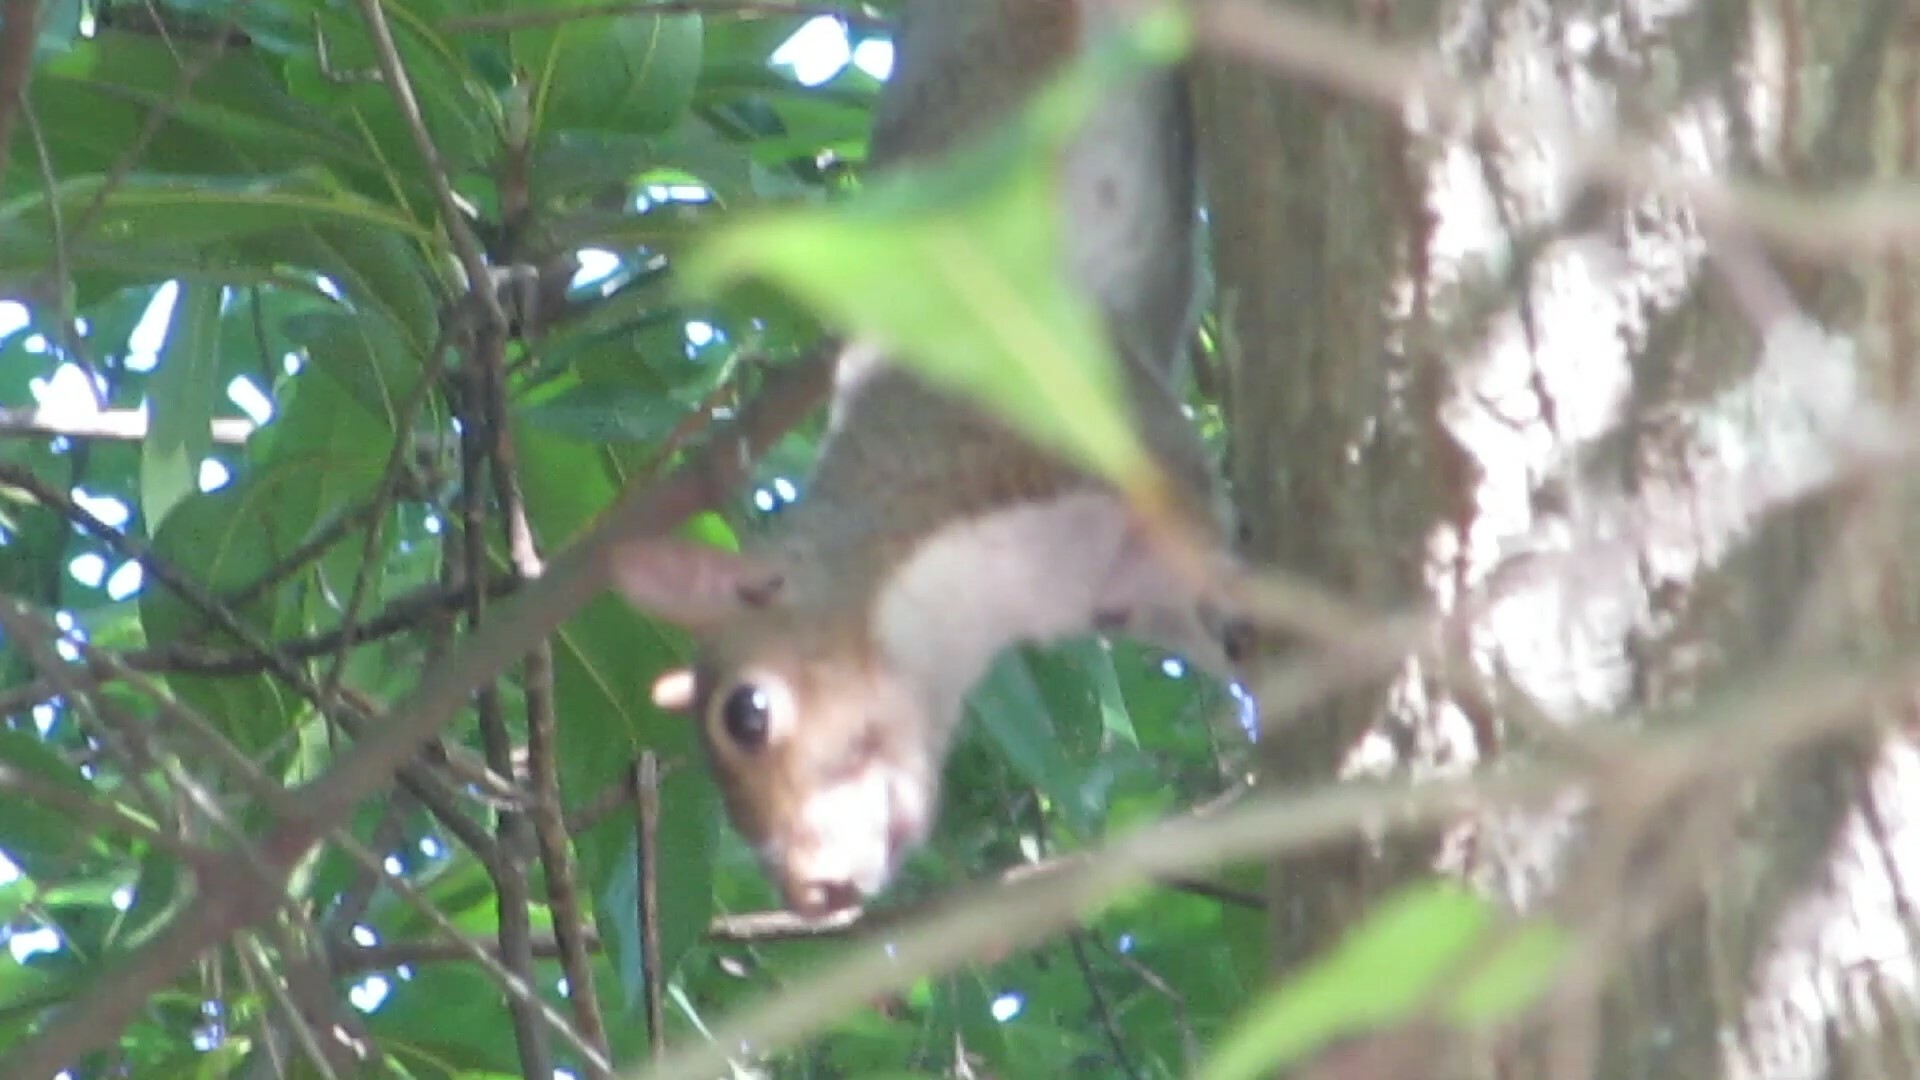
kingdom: Animalia
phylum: Chordata
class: Mammalia
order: Rodentia
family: Sciuridae
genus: Sciurus
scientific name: Sciurus carolinensis
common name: Eastern gray squirrel
